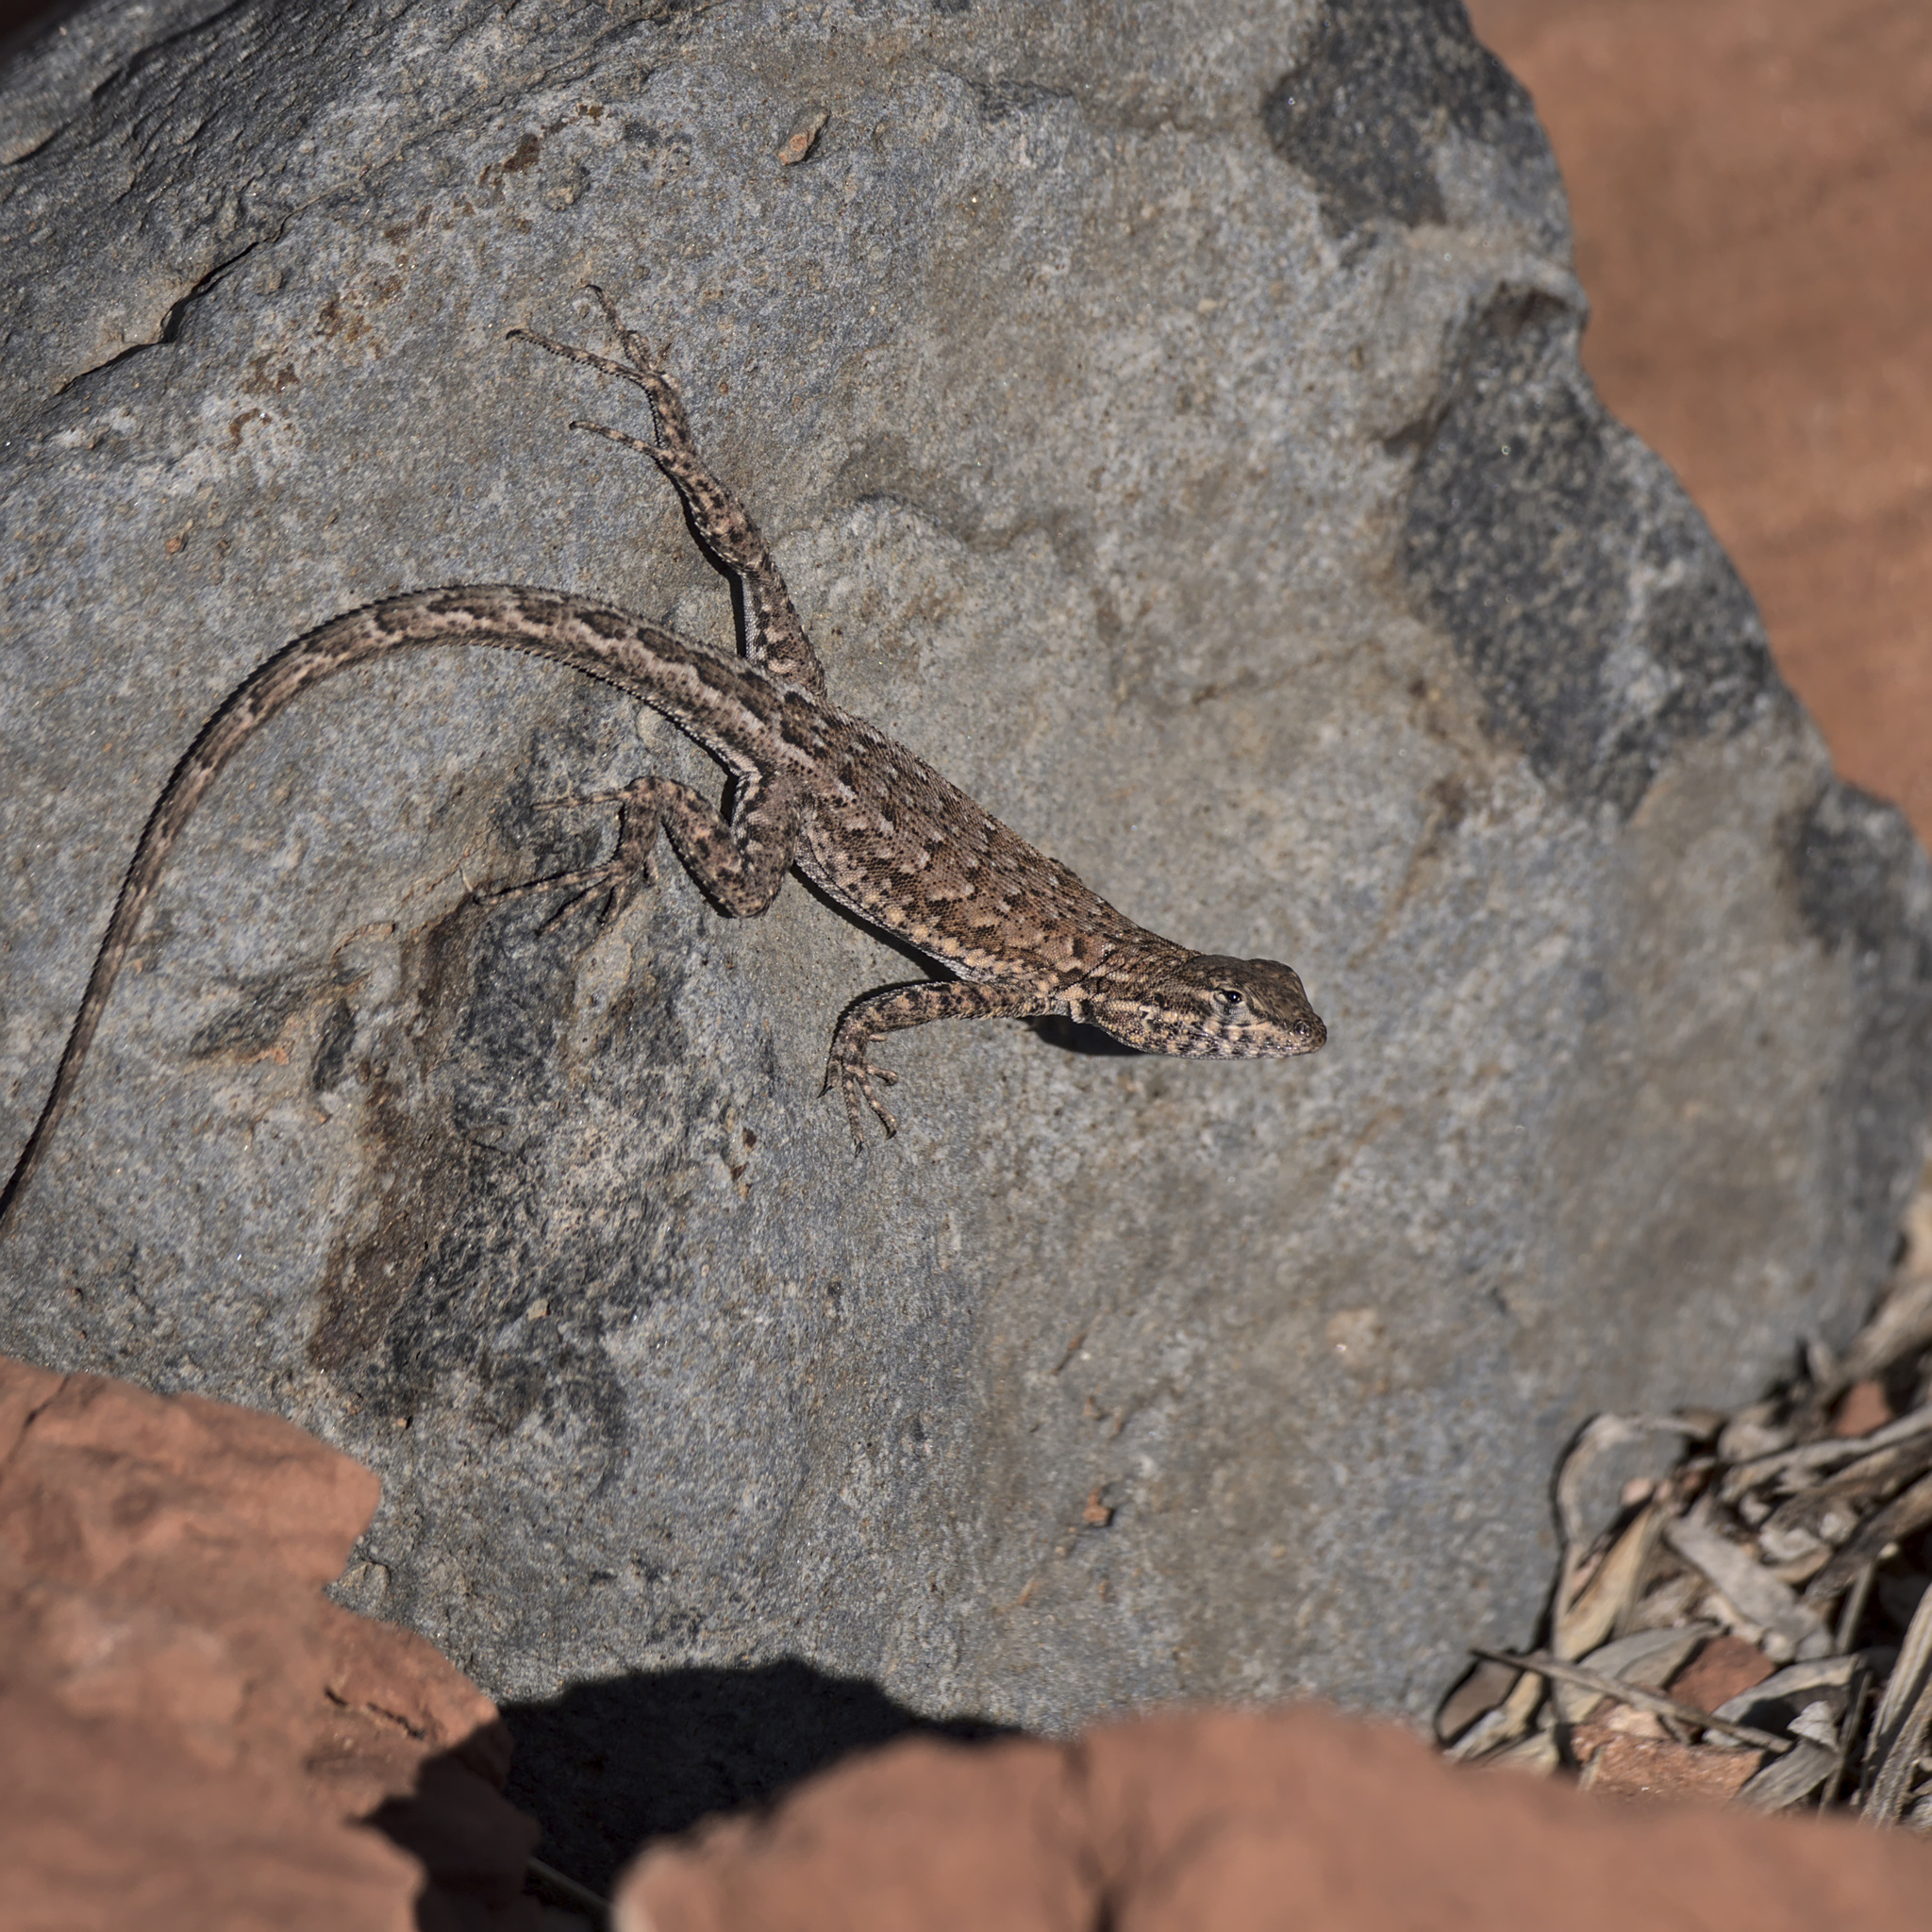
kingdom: Animalia
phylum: Chordata
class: Squamata
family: Phrynosomatidae
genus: Uta
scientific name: Uta stansburiana
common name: Side-blotched lizard
